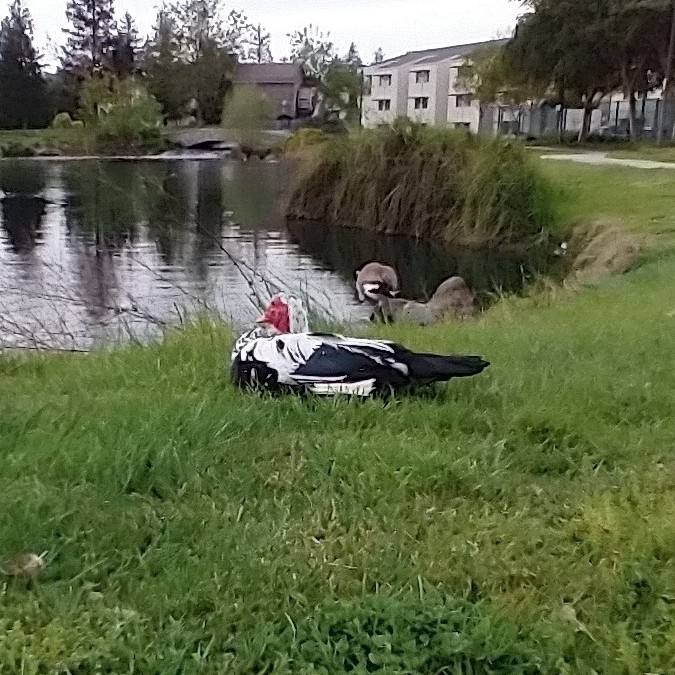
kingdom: Animalia
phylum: Chordata
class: Aves
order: Anseriformes
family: Anatidae
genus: Cairina
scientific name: Cairina moschata
